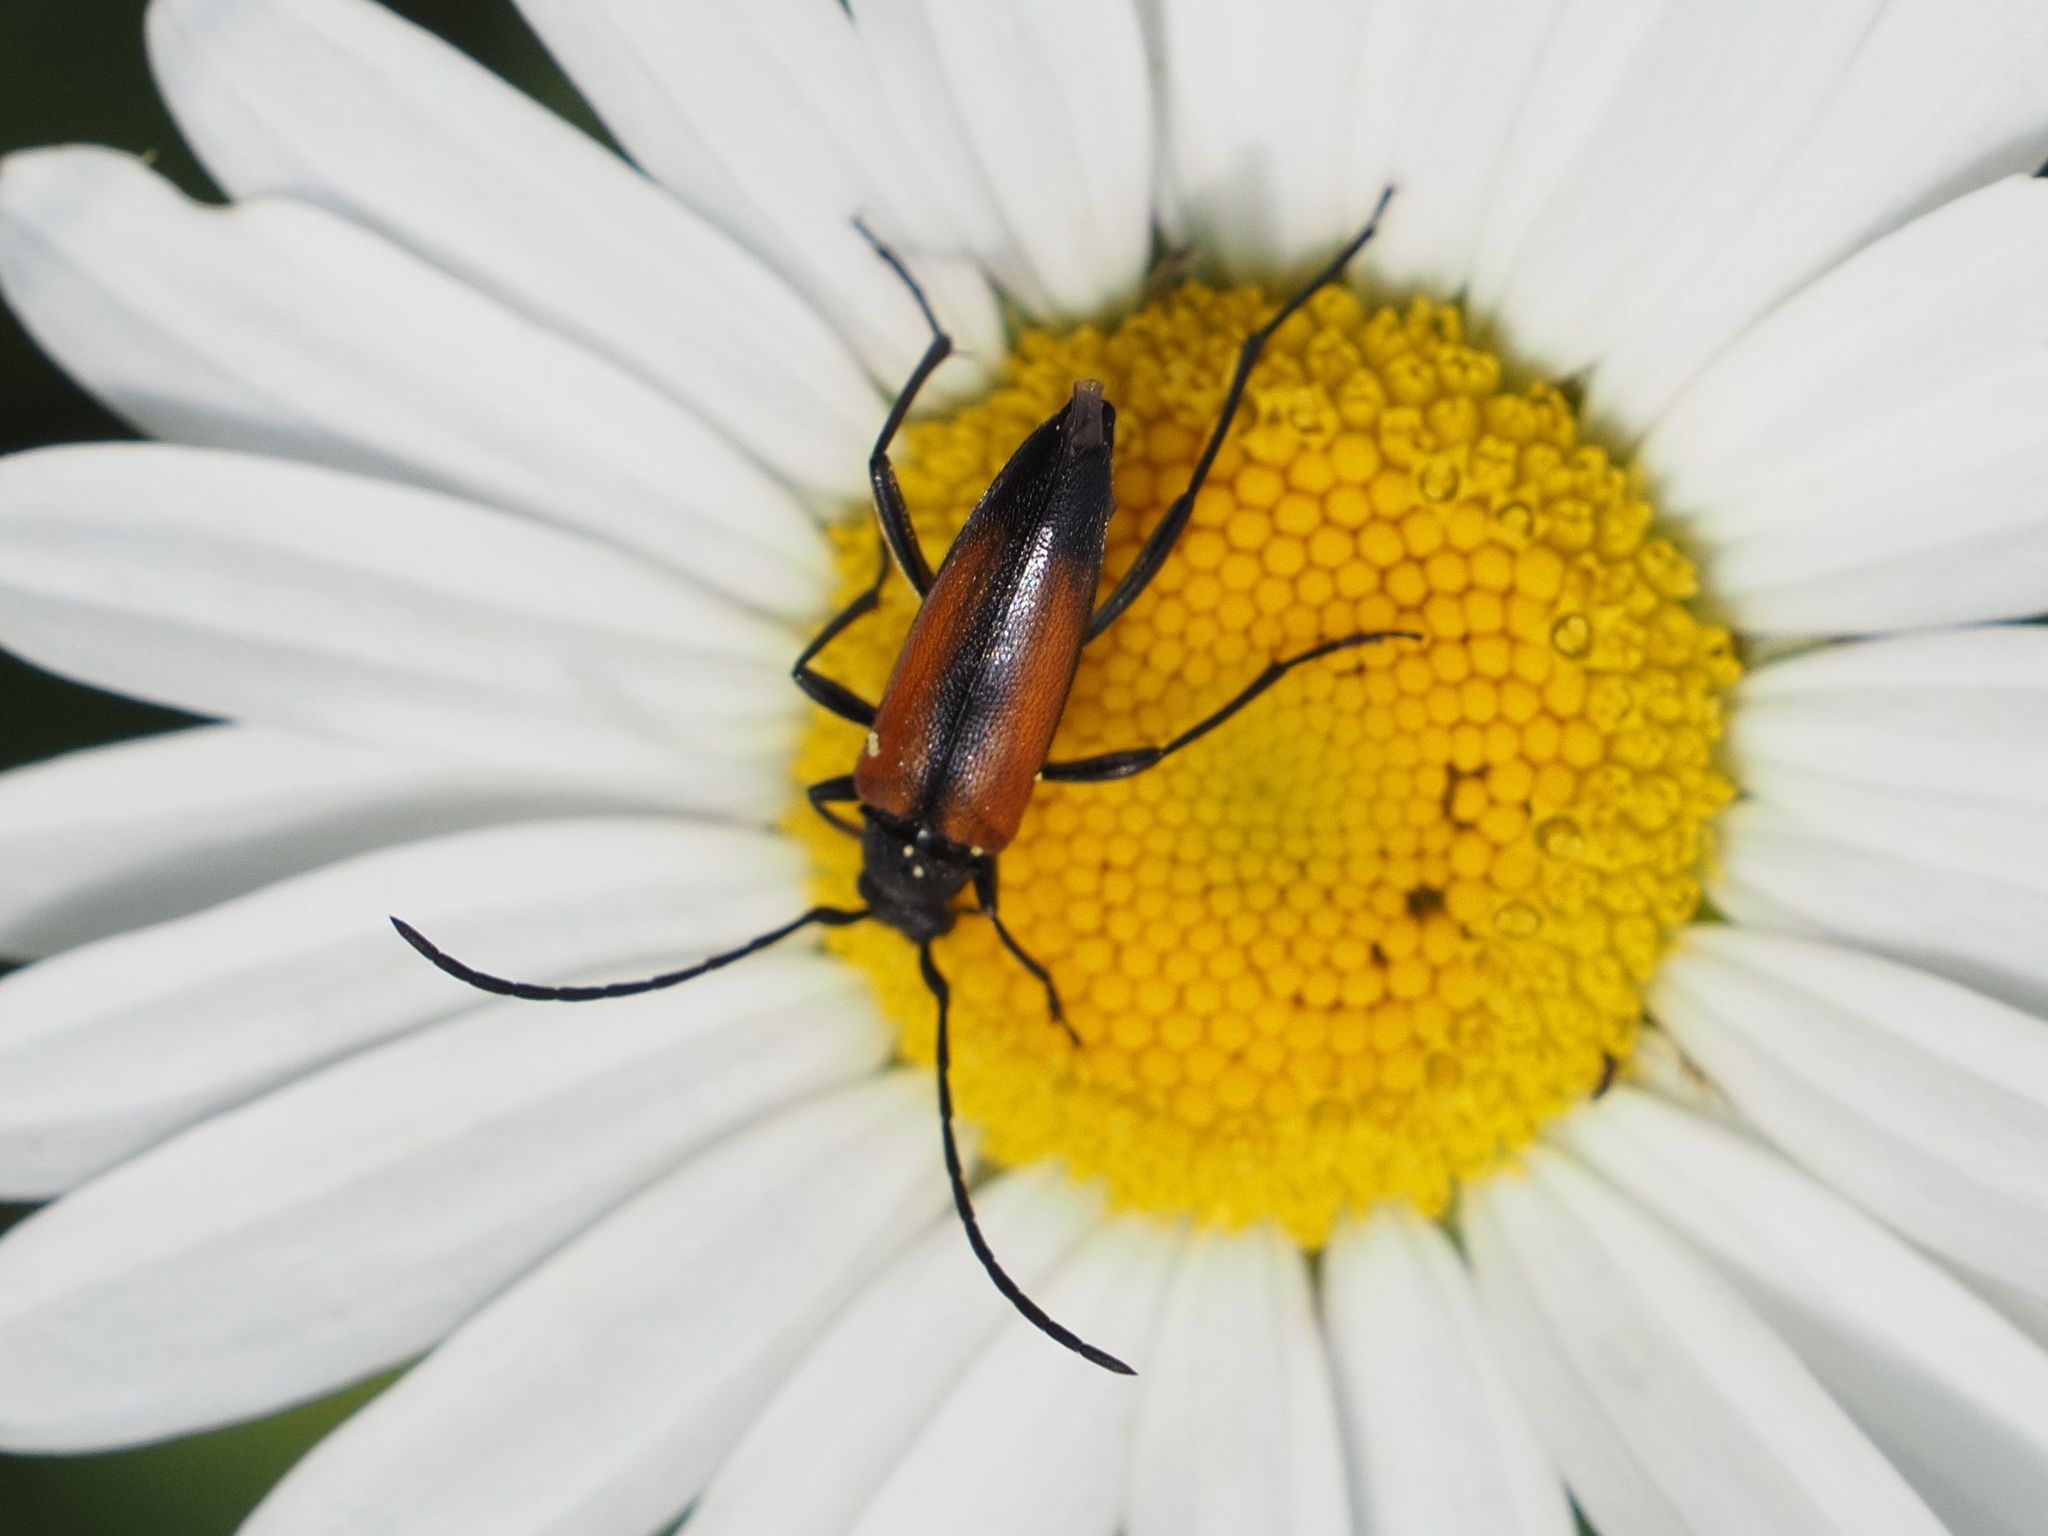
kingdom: Animalia
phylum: Arthropoda
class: Insecta
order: Coleoptera
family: Cerambycidae
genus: Stenurella
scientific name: Stenurella melanura
